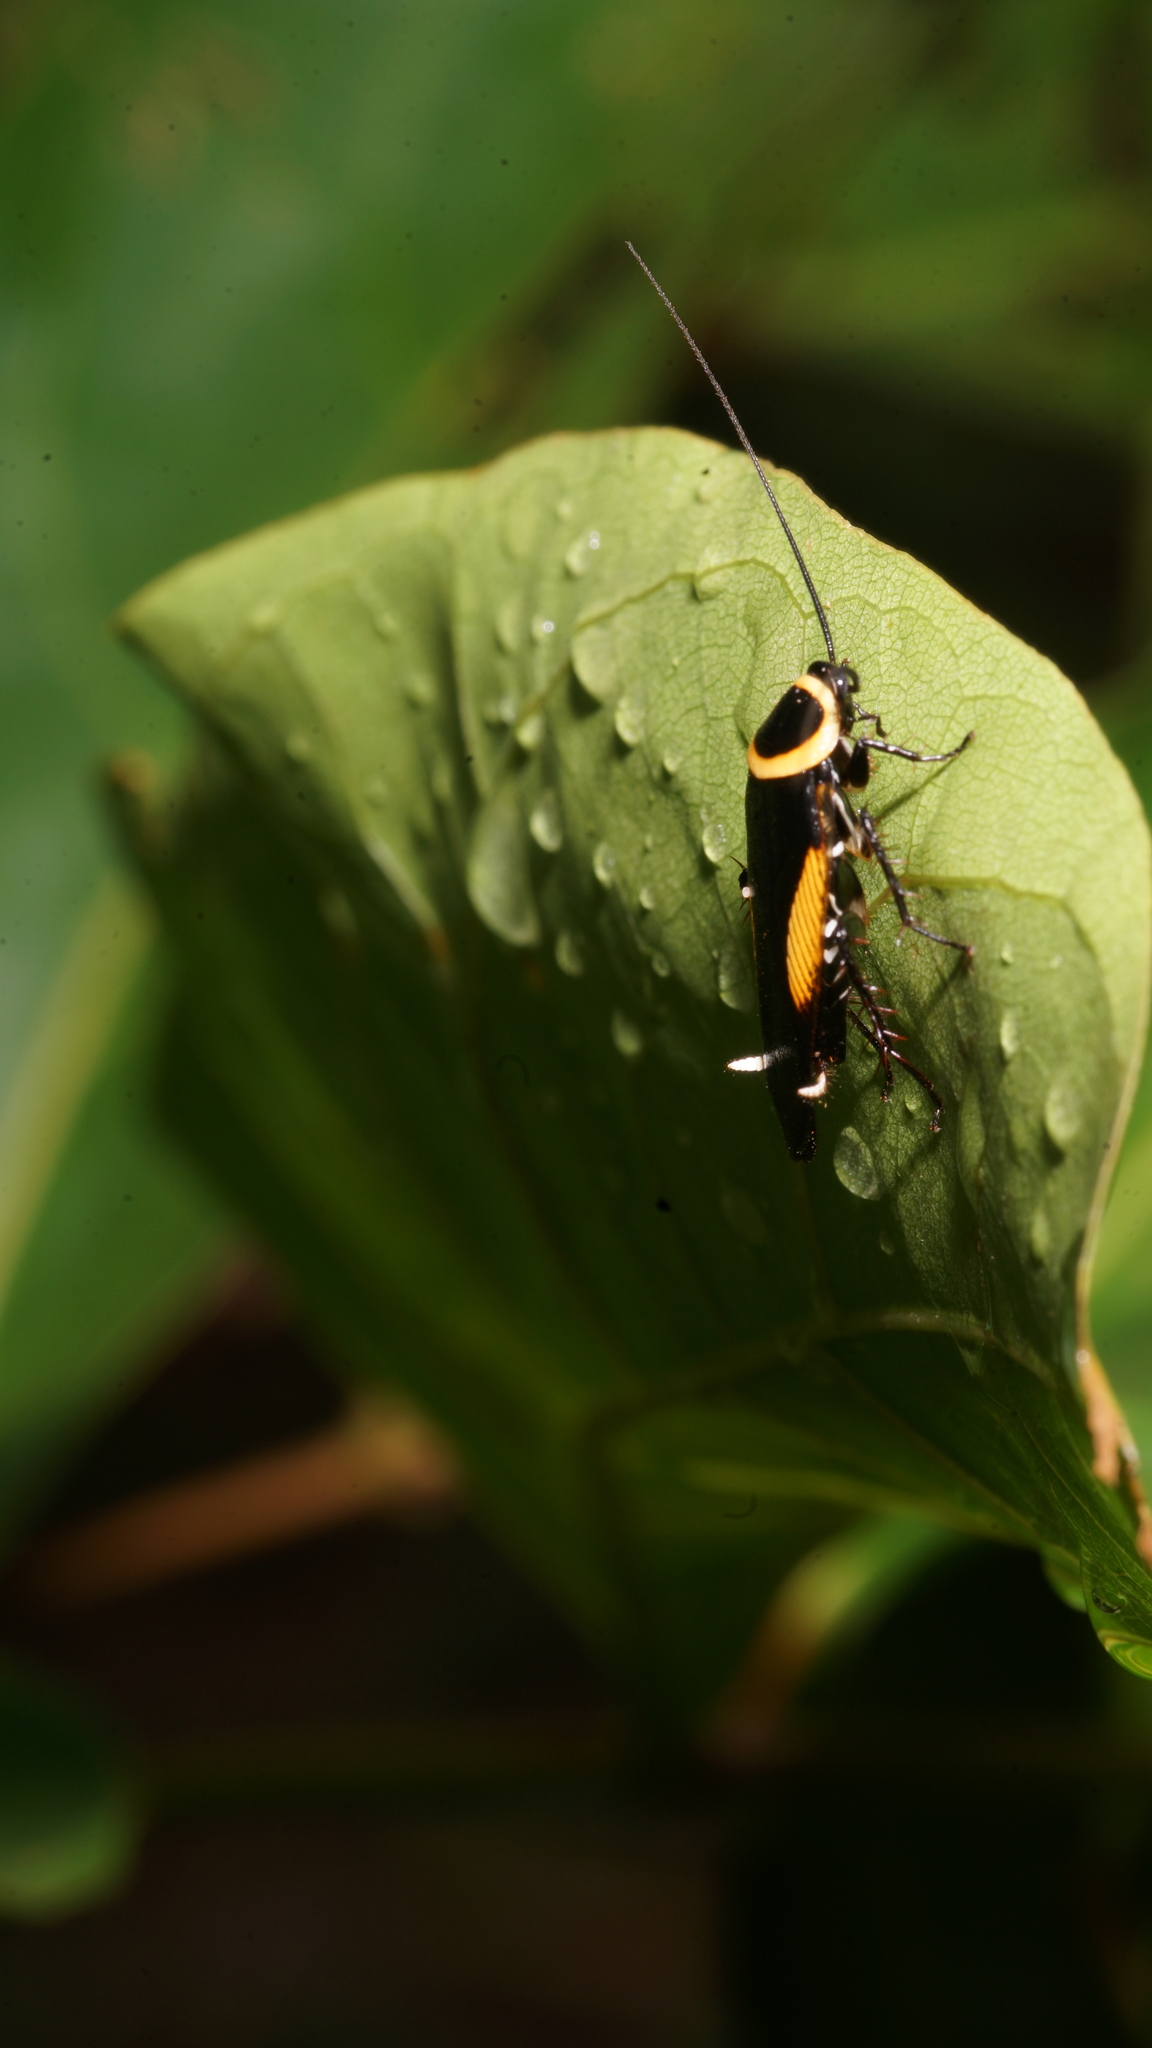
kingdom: Animalia
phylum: Arthropoda
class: Insecta
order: Blattodea
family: Ectobiidae
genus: Hemithyrsocera
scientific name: Hemithyrsocera vittata
